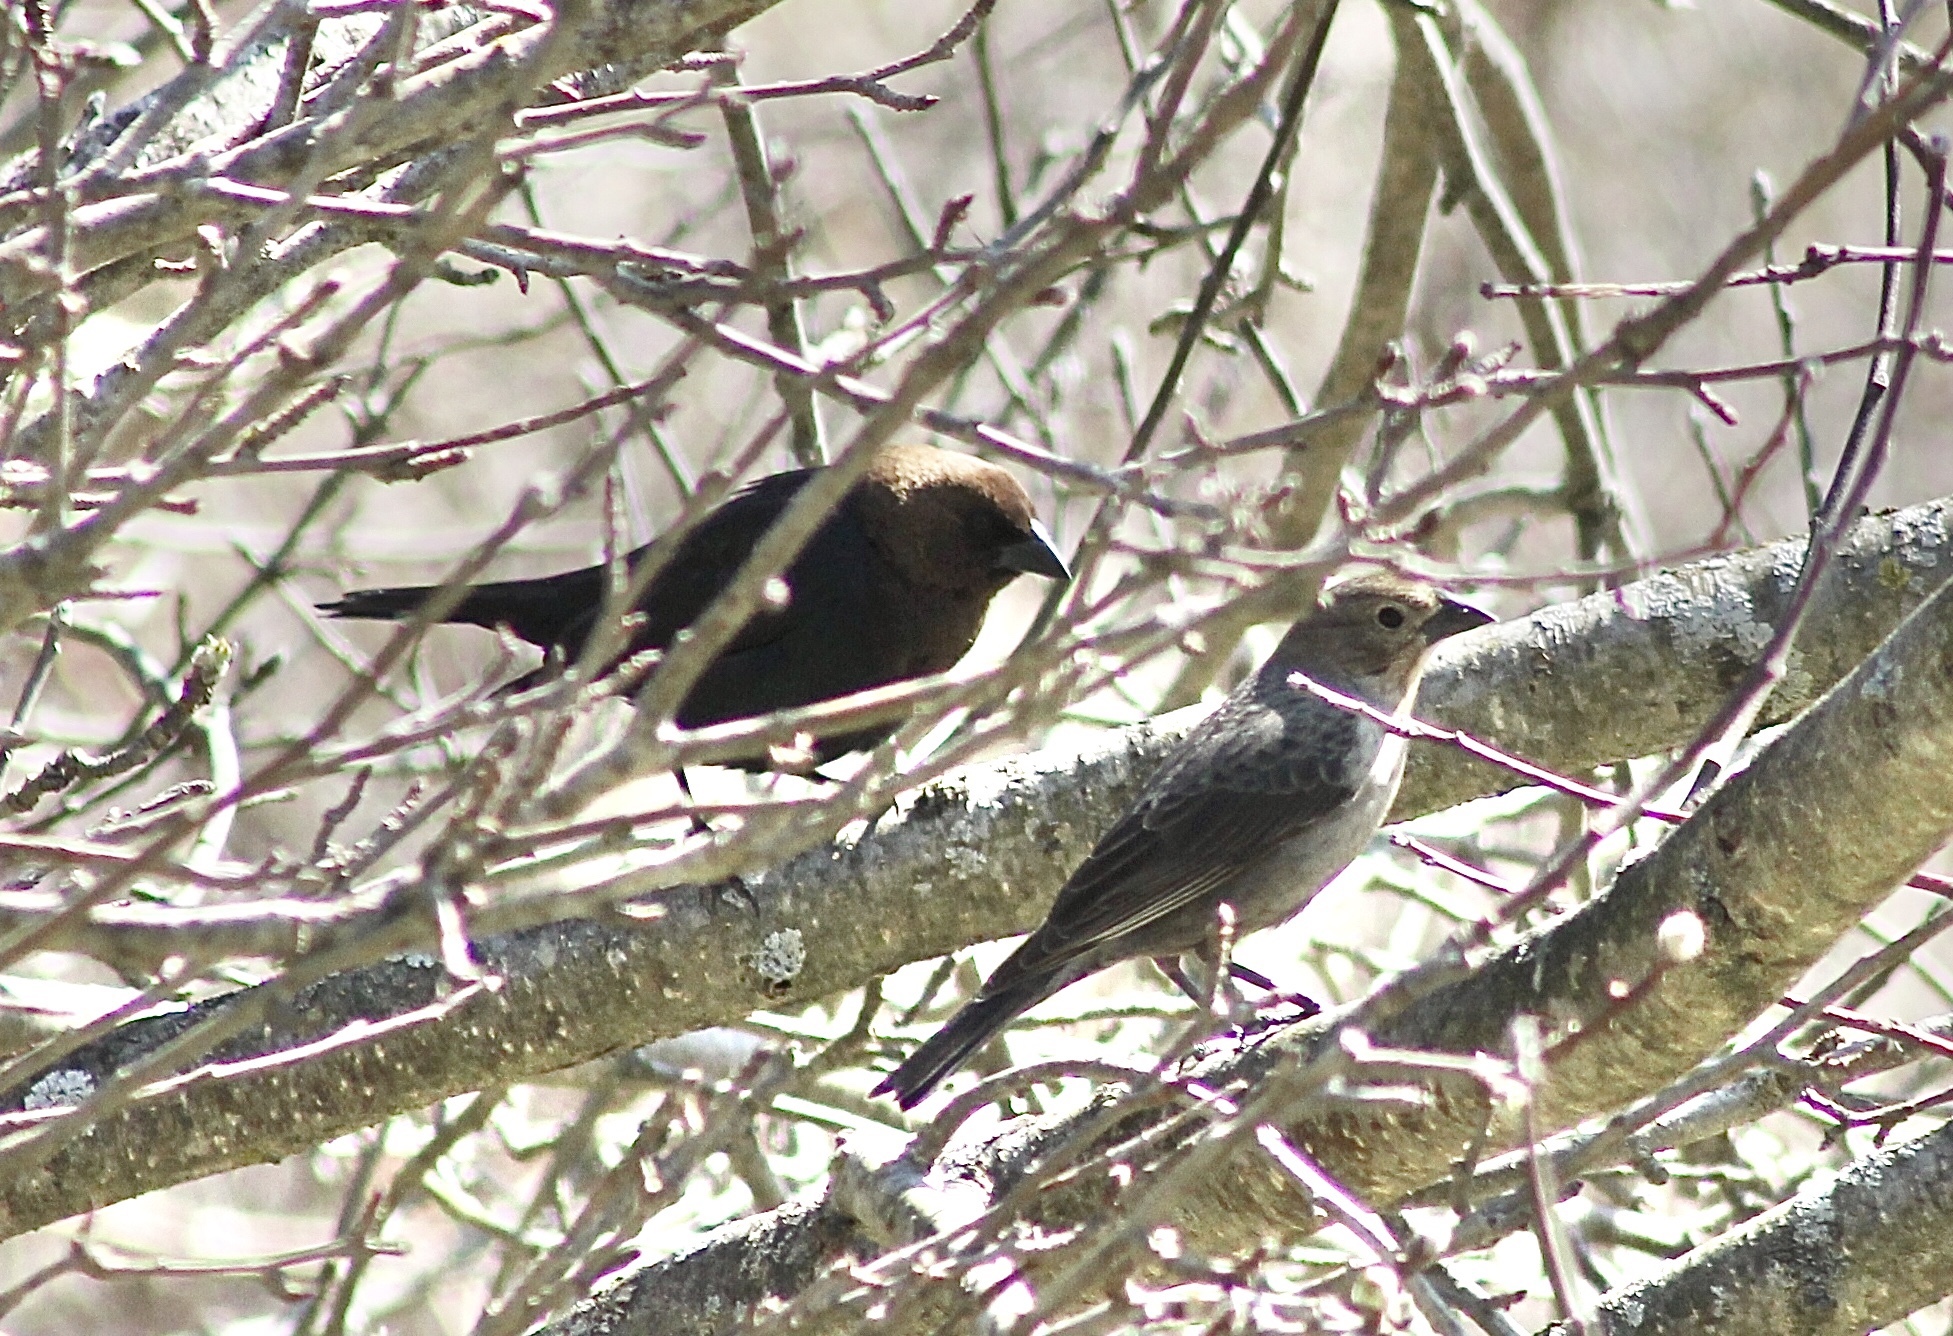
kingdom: Animalia
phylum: Chordata
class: Aves
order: Passeriformes
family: Icteridae
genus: Molothrus
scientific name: Molothrus ater
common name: Brown-headed cowbird
